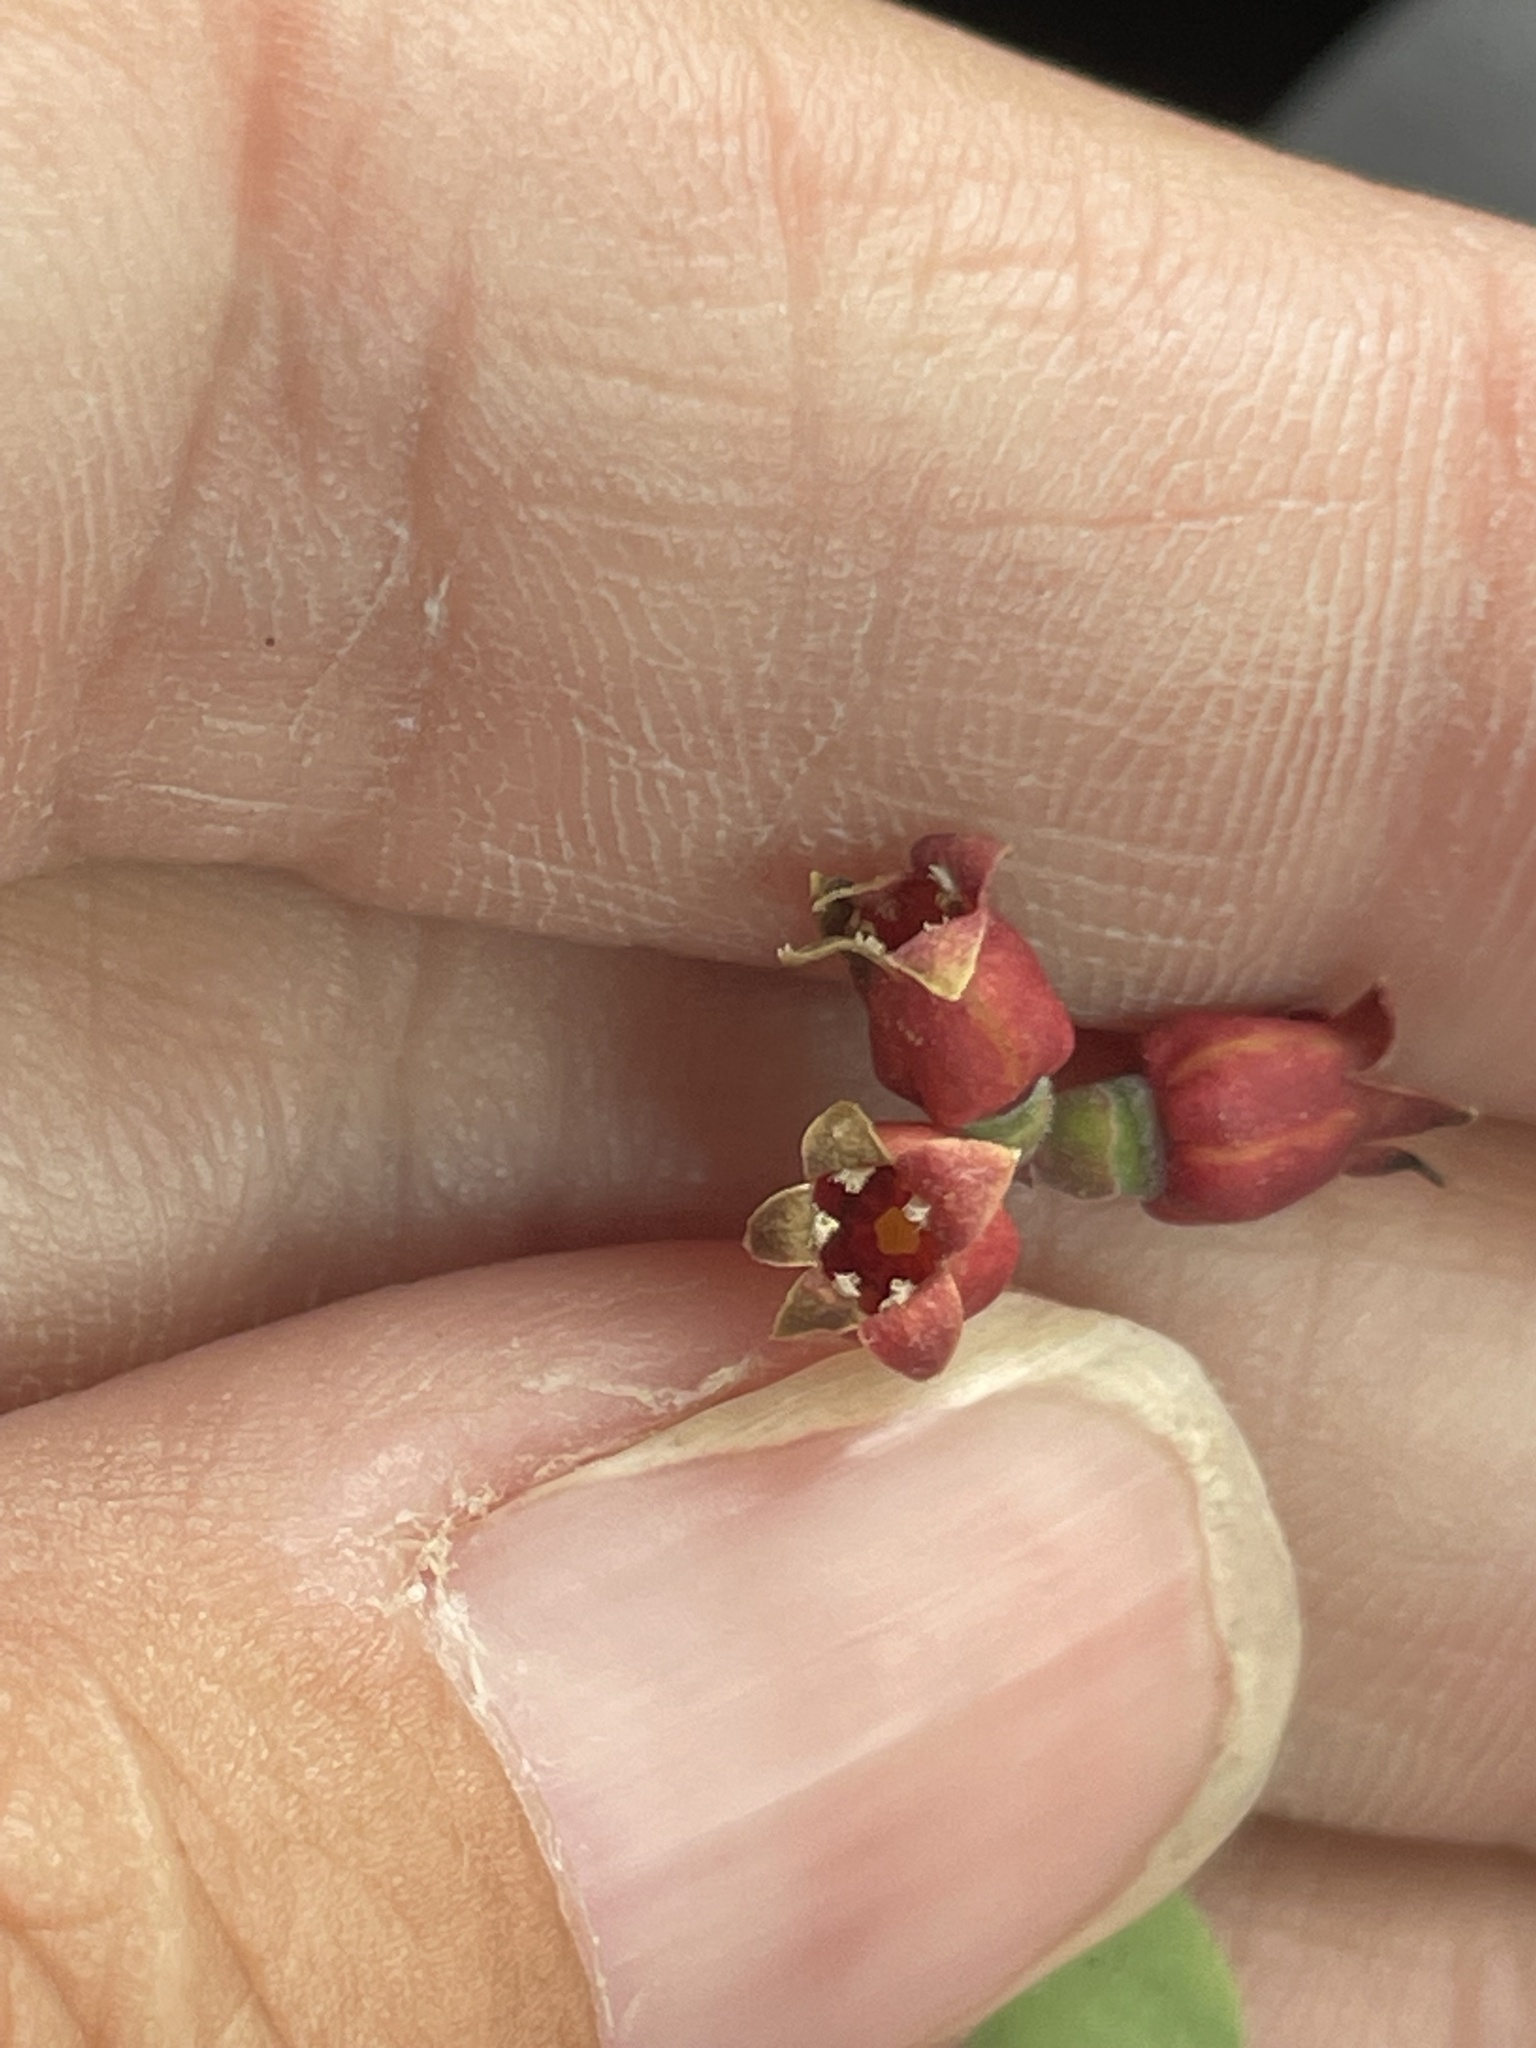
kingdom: Plantae
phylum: Tracheophyta
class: Magnoliopsida
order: Santalales
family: Schoepfiaceae
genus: Schoepfia
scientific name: Schoepfia californica
